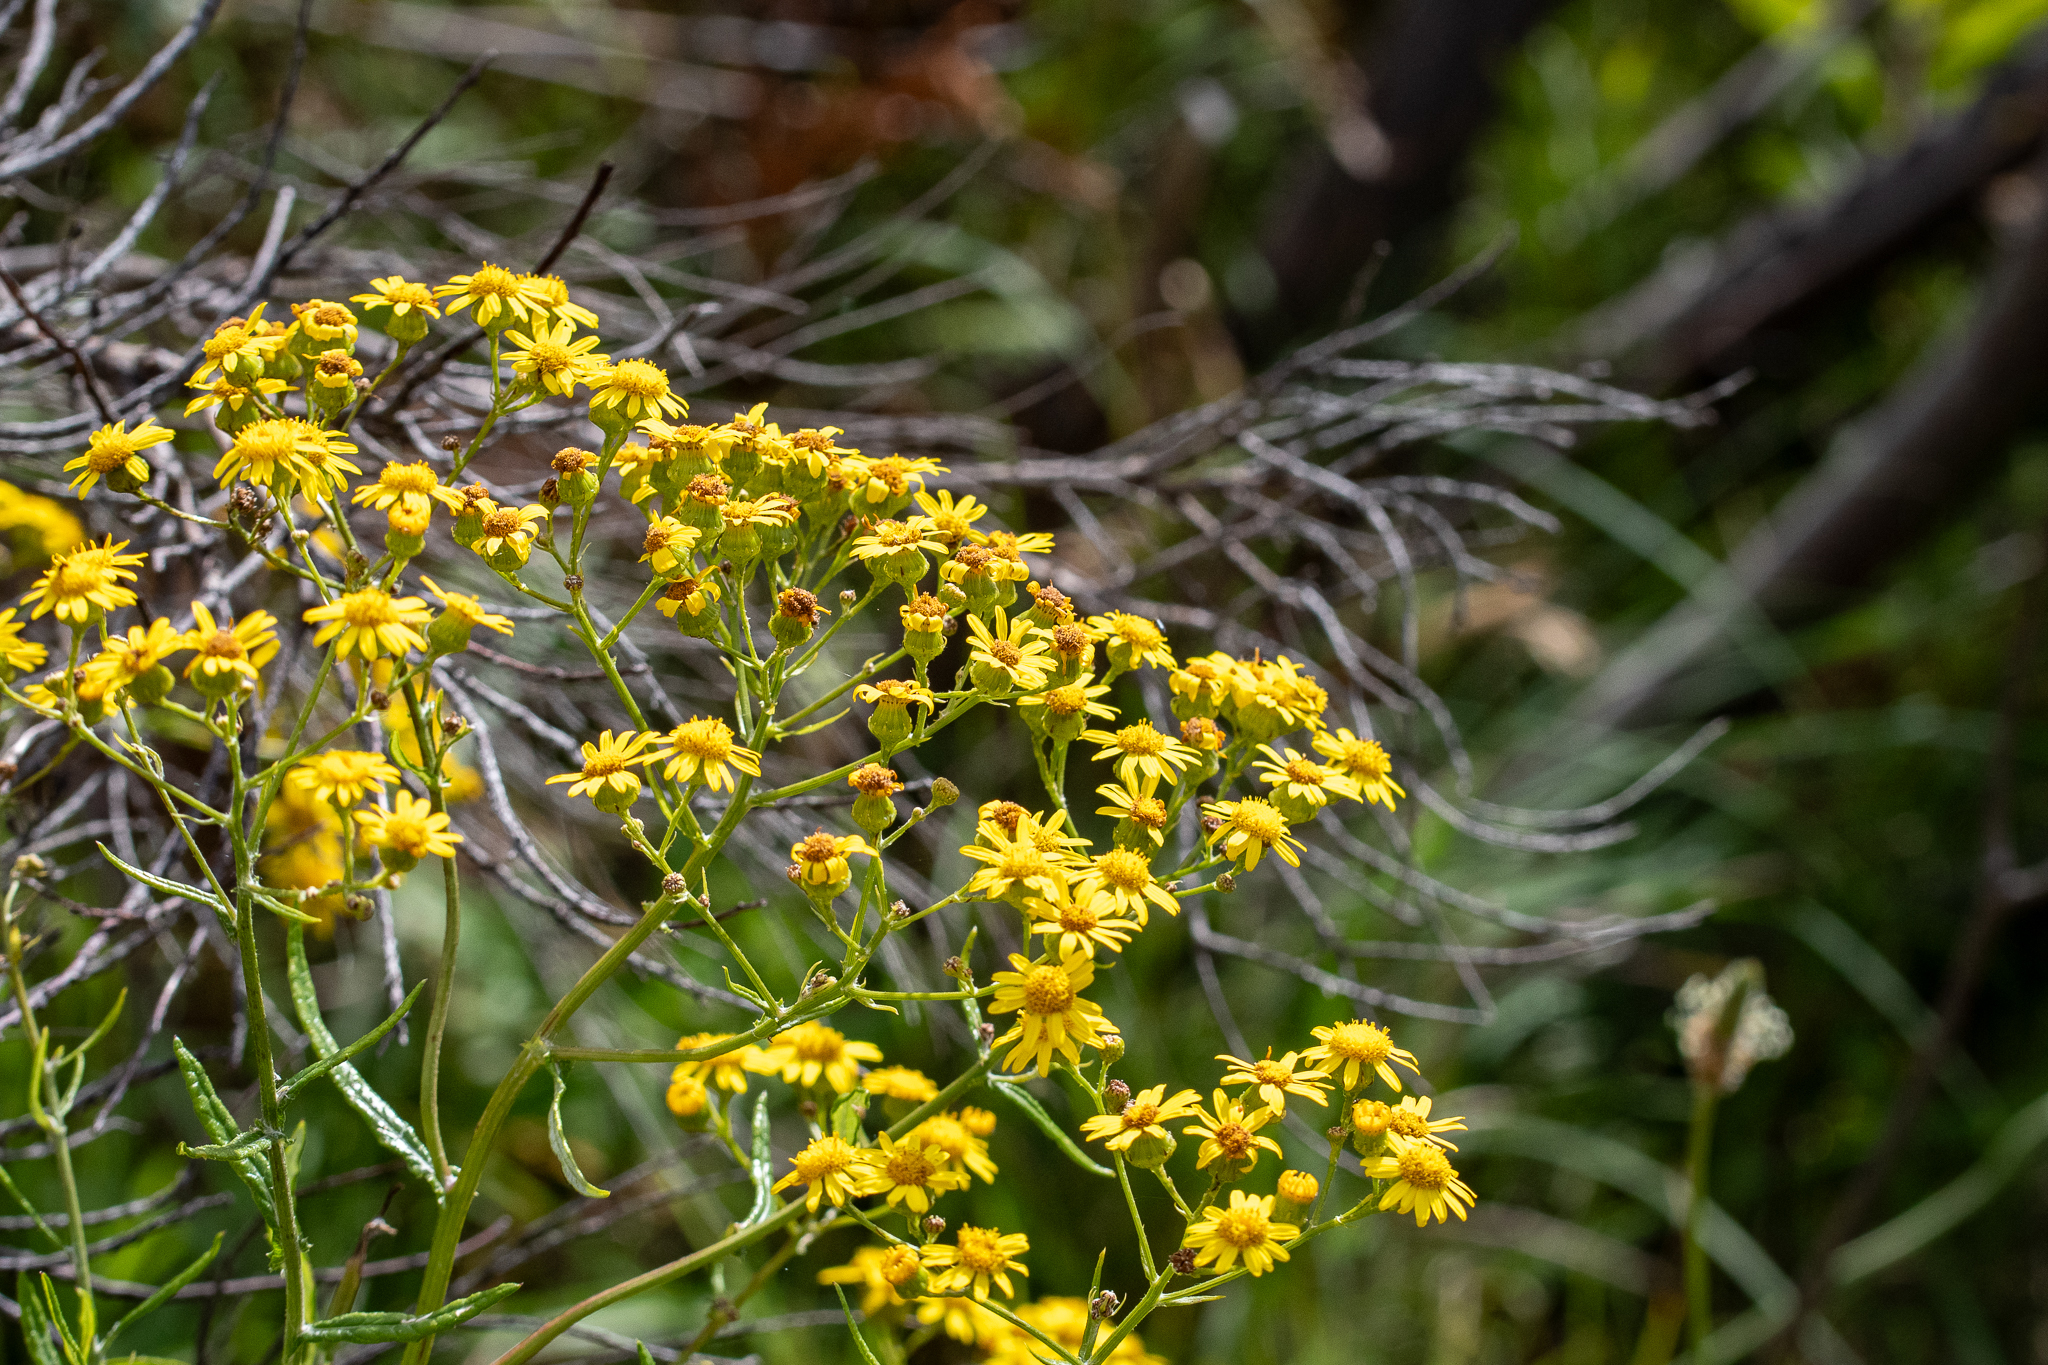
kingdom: Plantae
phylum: Tracheophyta
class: Magnoliopsida
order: Asterales
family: Asteraceae
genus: Senecio
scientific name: Senecio pterophorus
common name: Shoddy ragwort
